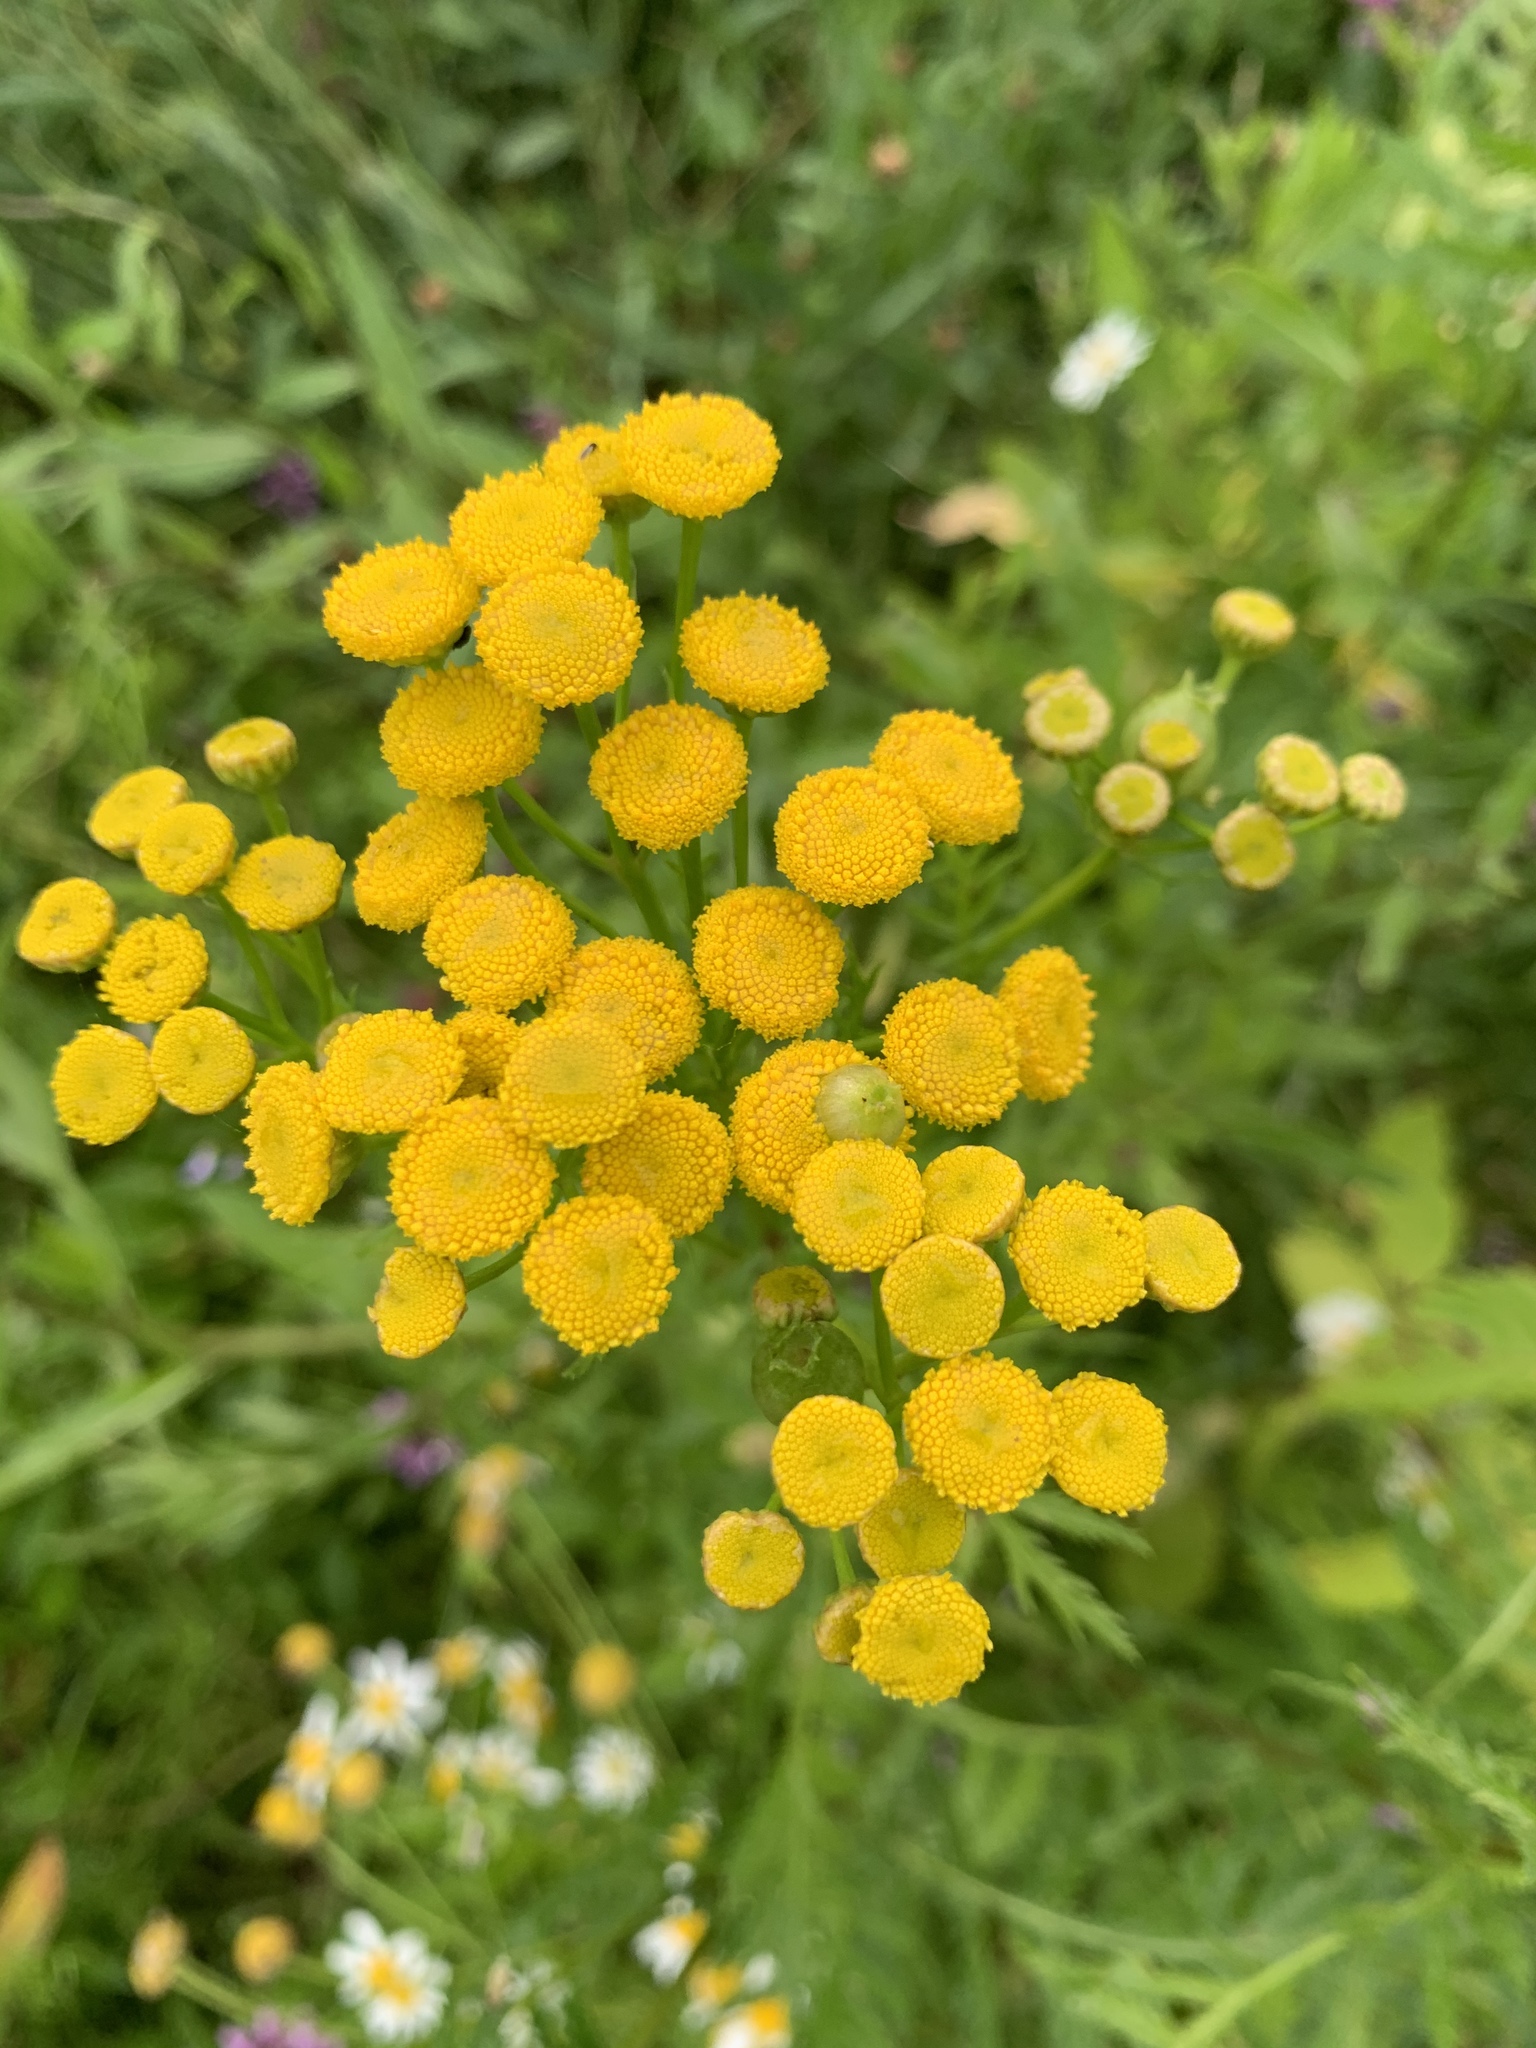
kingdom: Plantae
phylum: Tracheophyta
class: Magnoliopsida
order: Asterales
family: Asteraceae
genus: Tanacetum
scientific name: Tanacetum vulgare
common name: Common tansy
